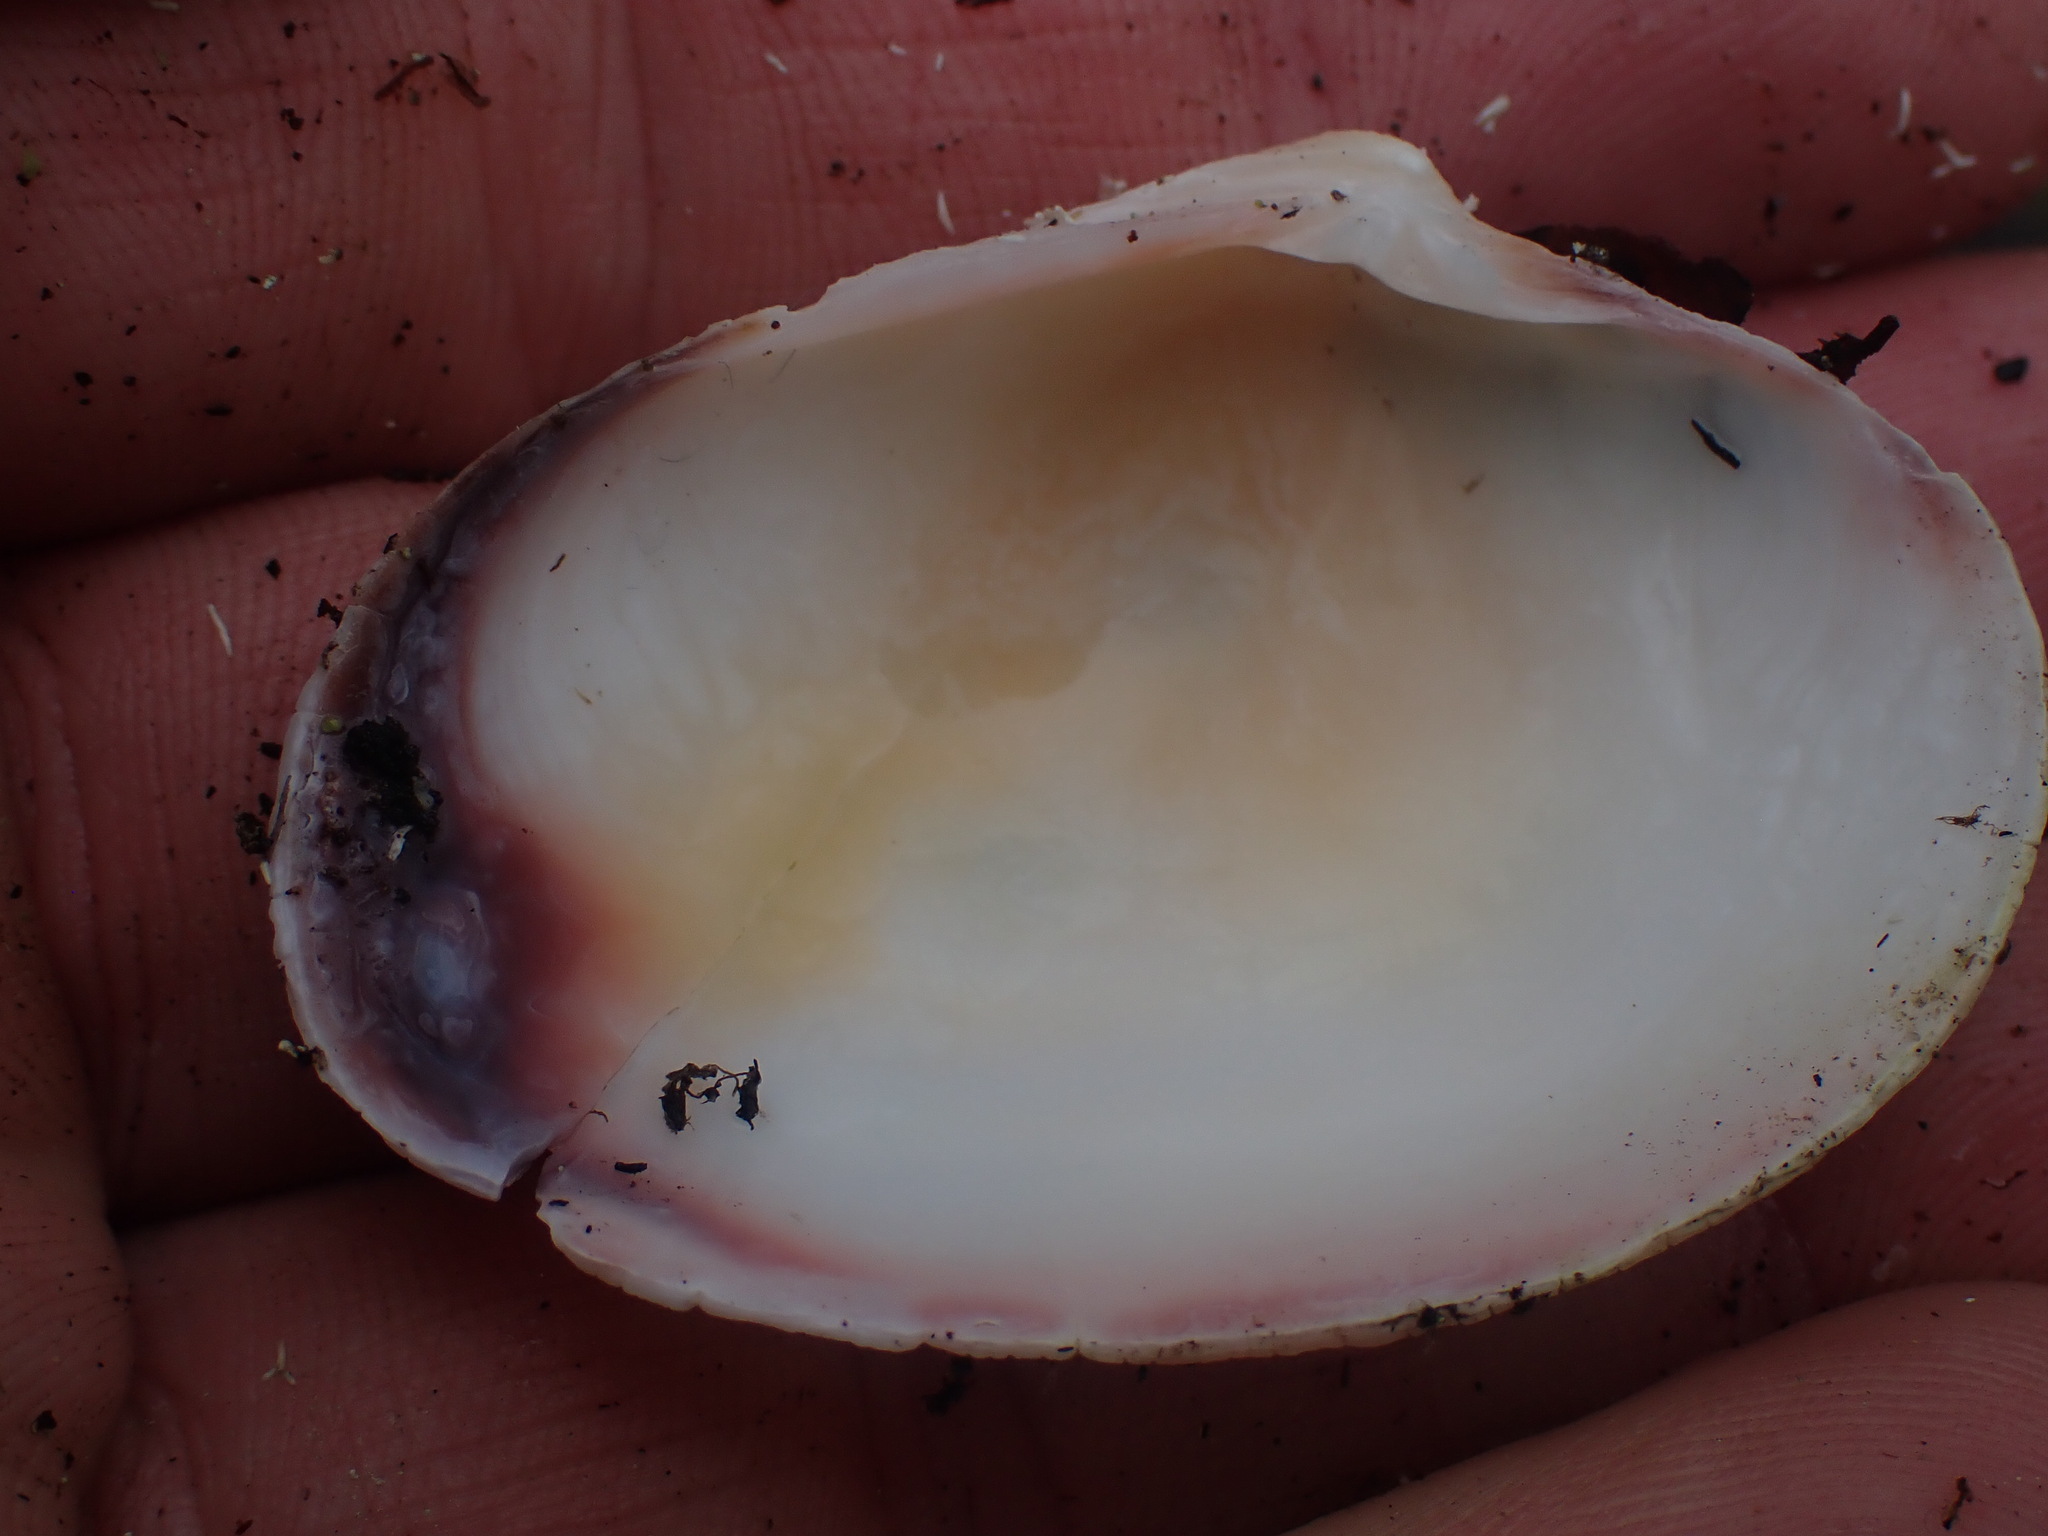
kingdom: Animalia
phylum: Mollusca
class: Bivalvia
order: Venerida
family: Veneridae
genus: Ruditapes
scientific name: Ruditapes philippinarum
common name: Manila clam
